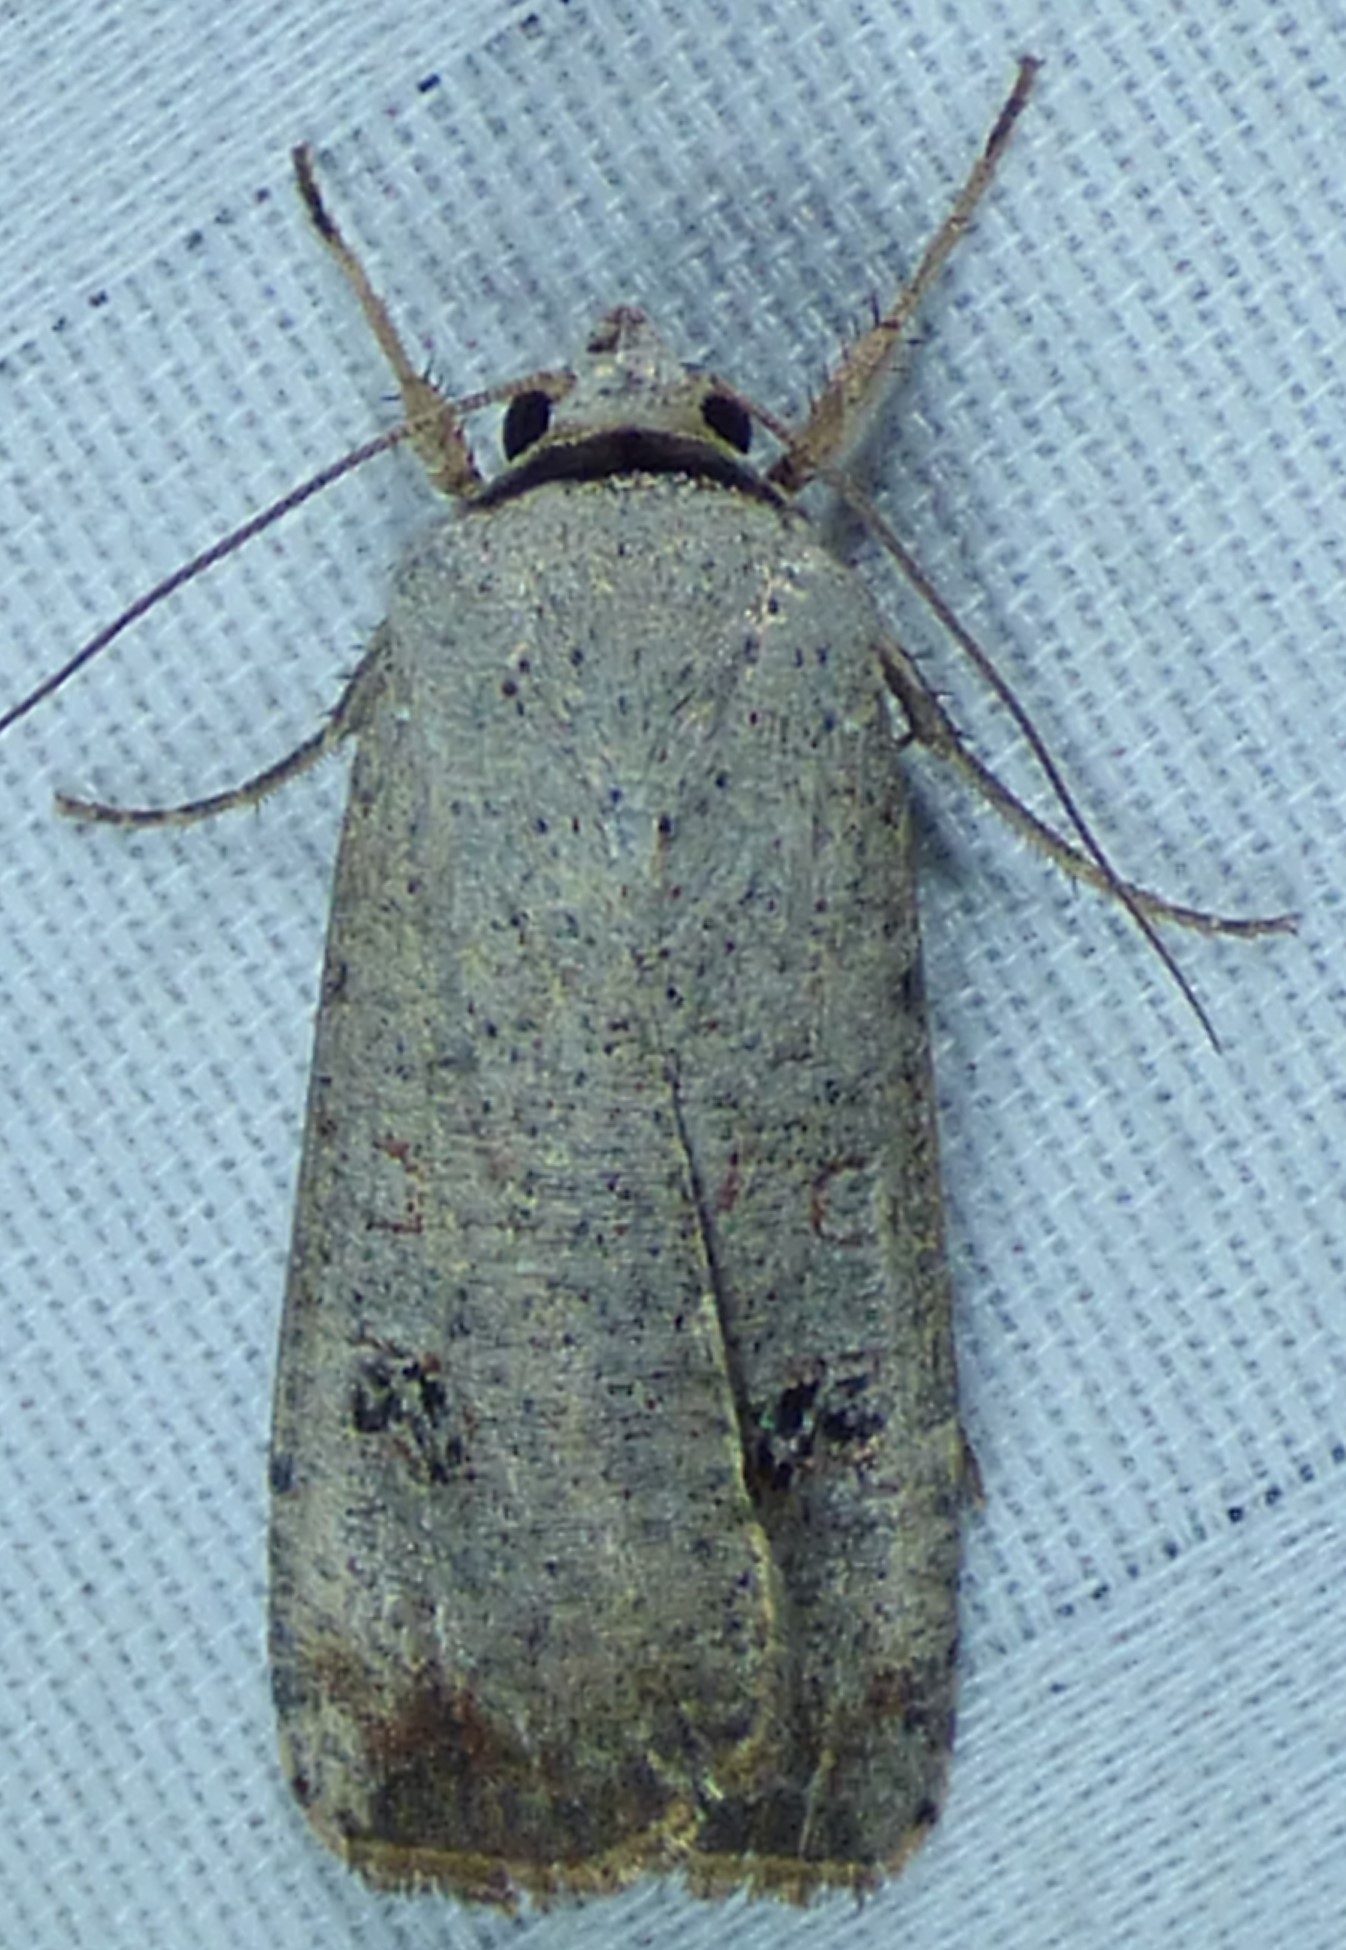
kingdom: Animalia
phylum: Arthropoda
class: Insecta
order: Lepidoptera
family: Noctuidae
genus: Anicla
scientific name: Anicla infecta
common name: Green cutworm
